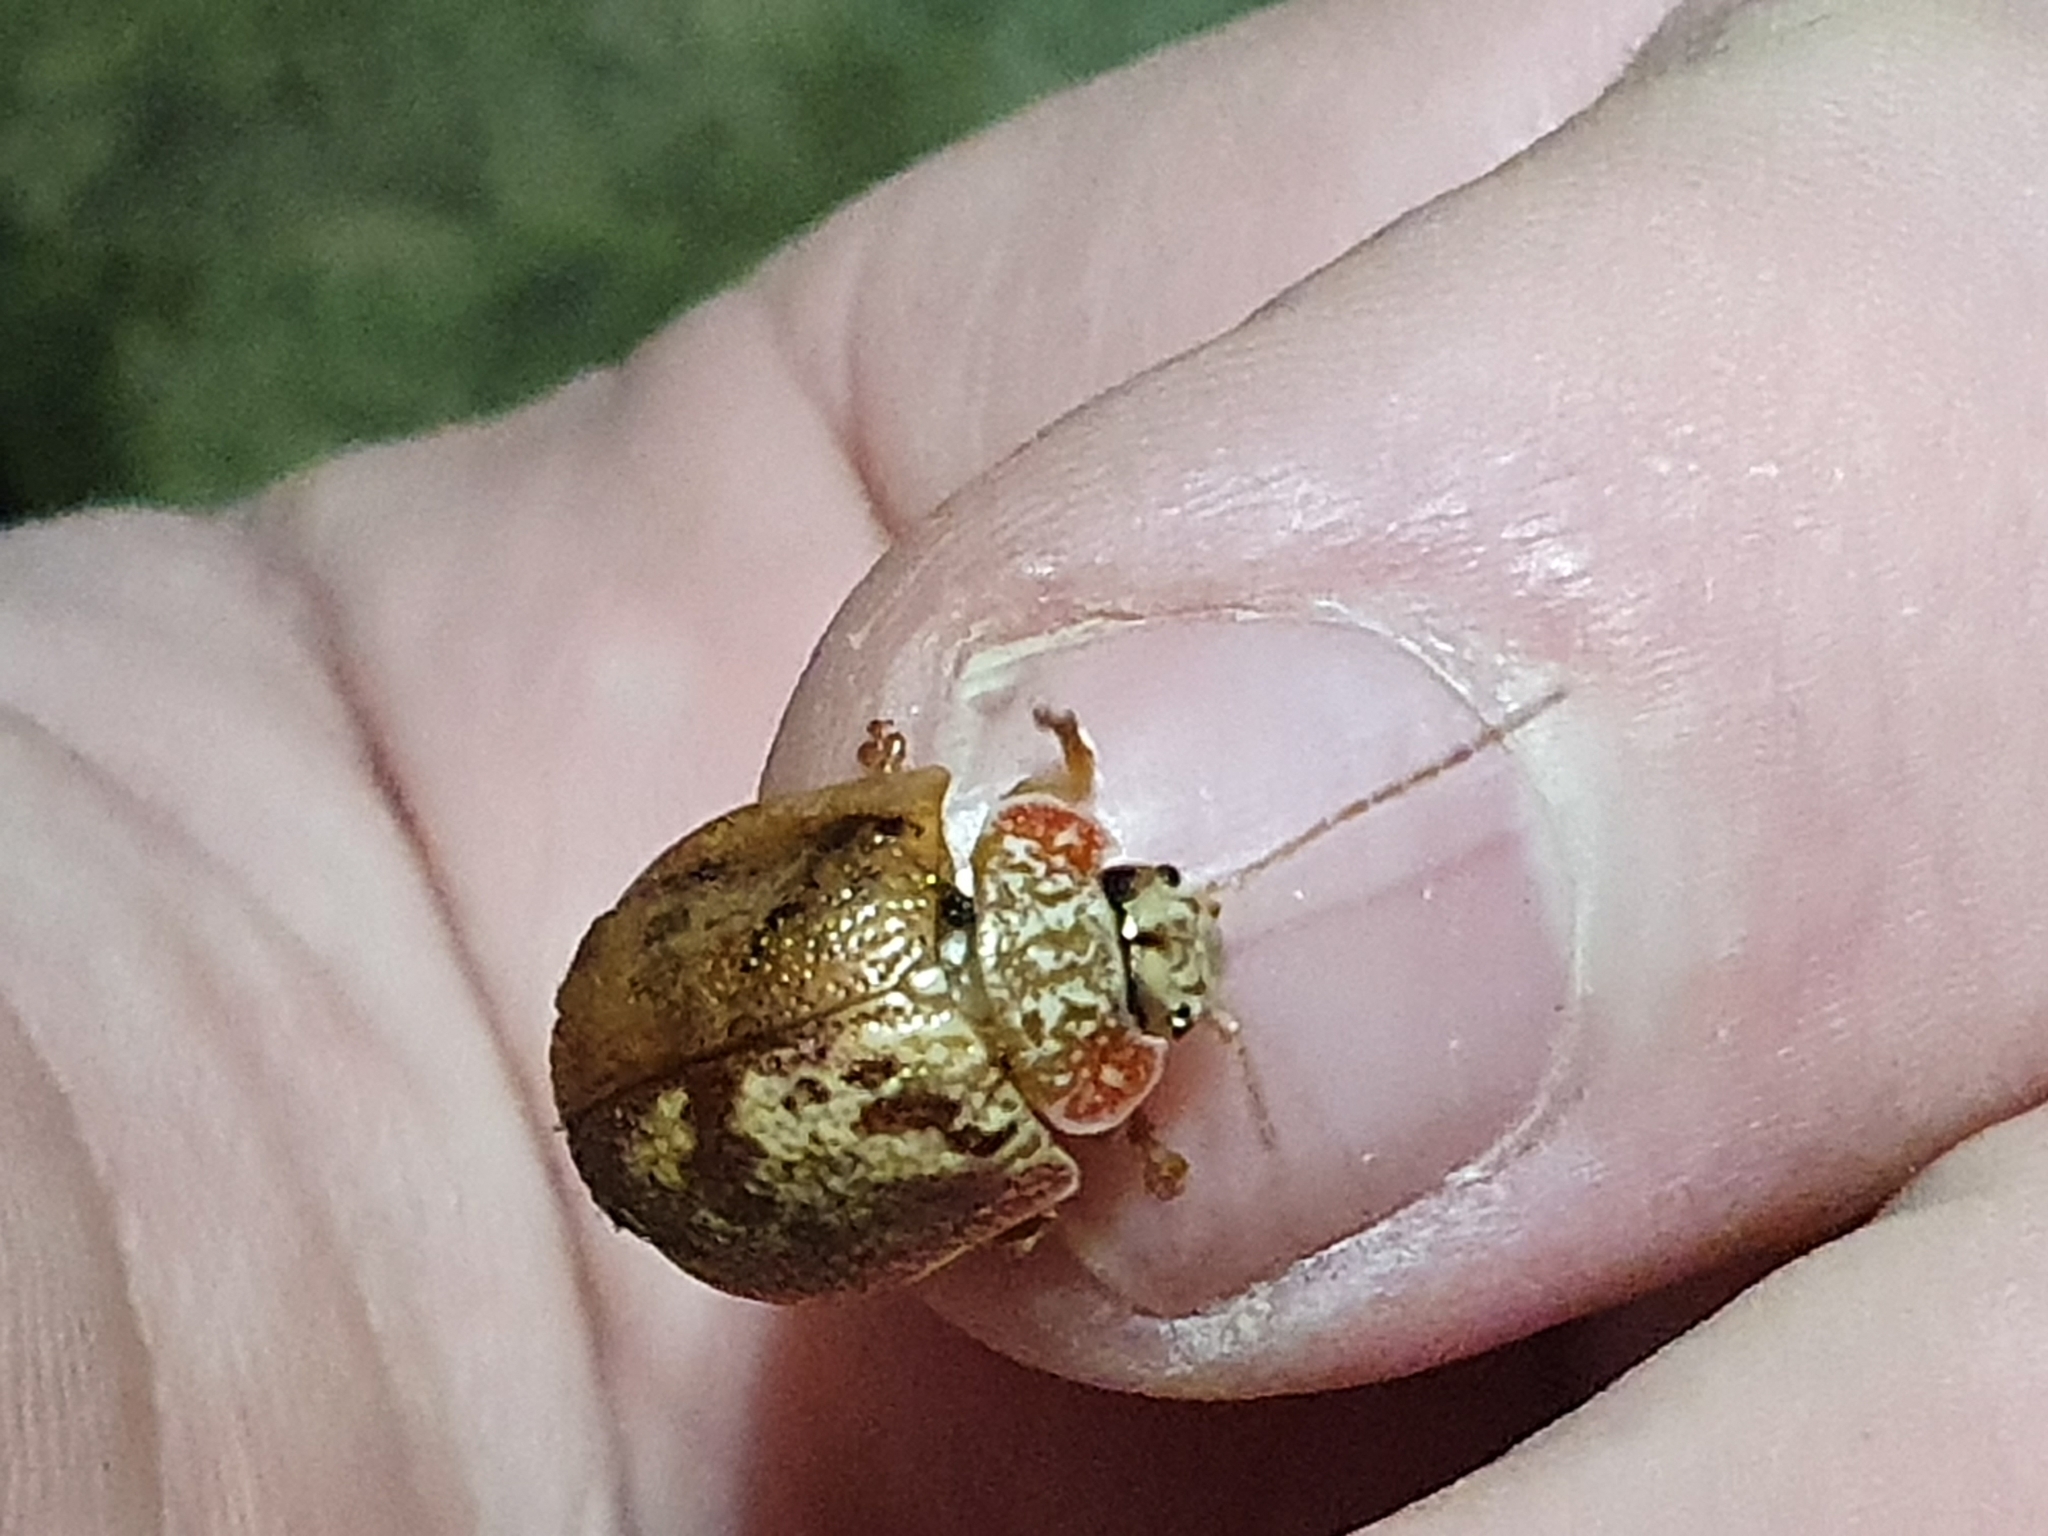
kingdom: Animalia
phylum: Arthropoda
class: Insecta
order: Coleoptera
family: Chrysomelidae
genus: Paropsis
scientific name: Paropsis charybdis
